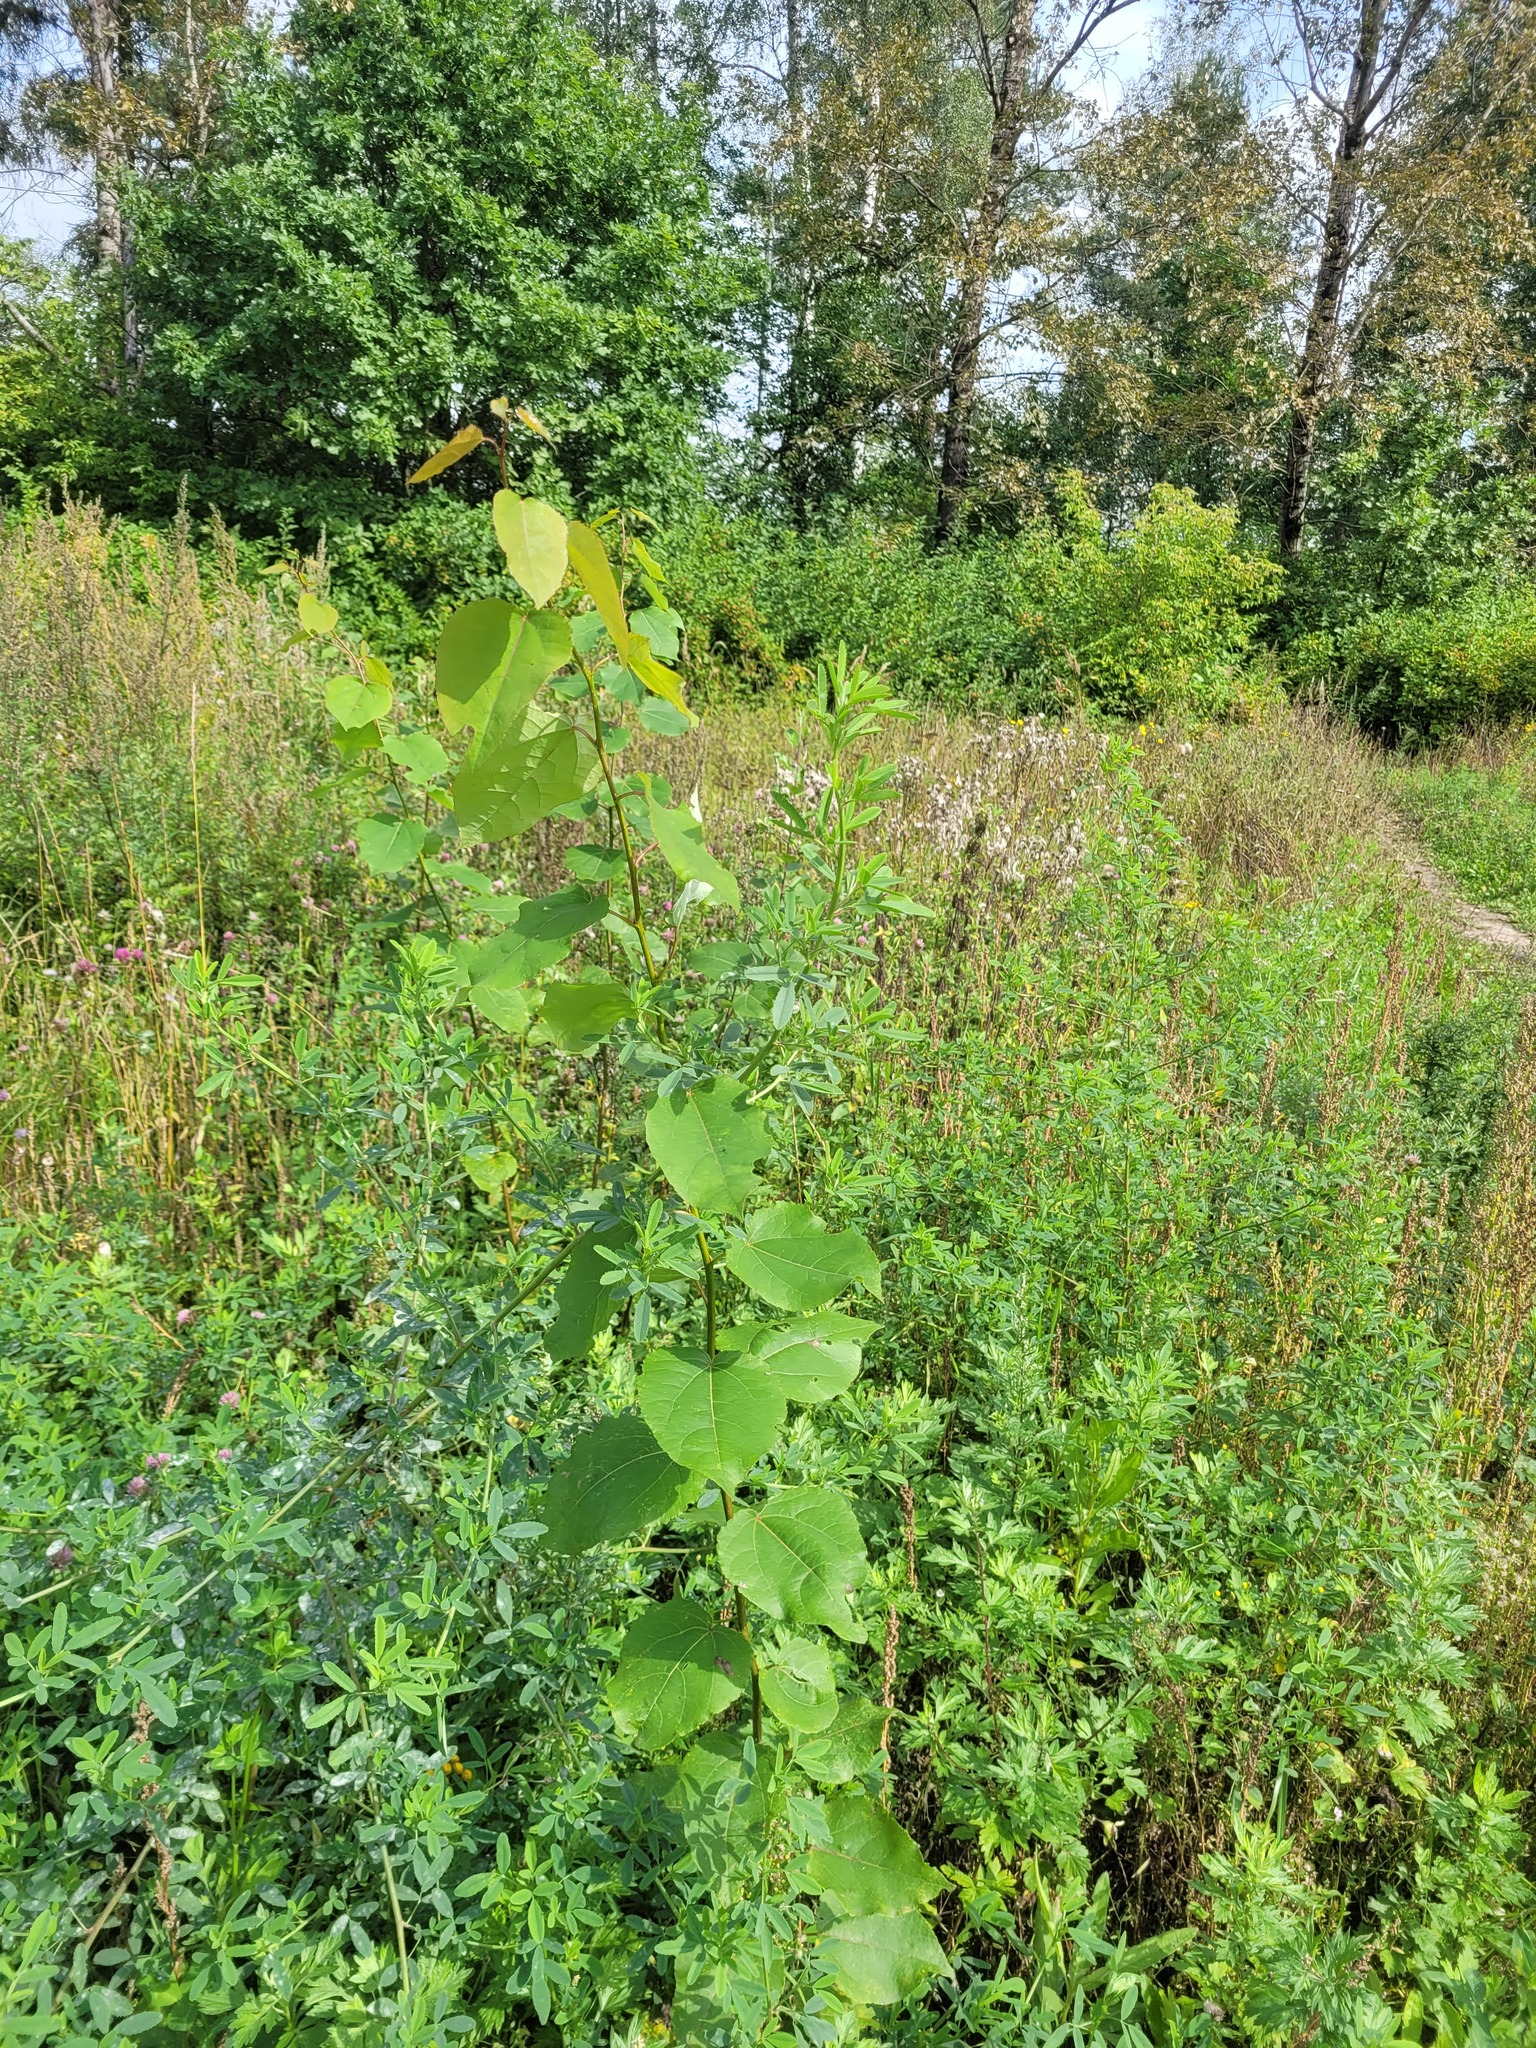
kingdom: Plantae
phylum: Tracheophyta
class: Magnoliopsida
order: Malpighiales
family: Salicaceae
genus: Populus
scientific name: Populus tremula
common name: European aspen
